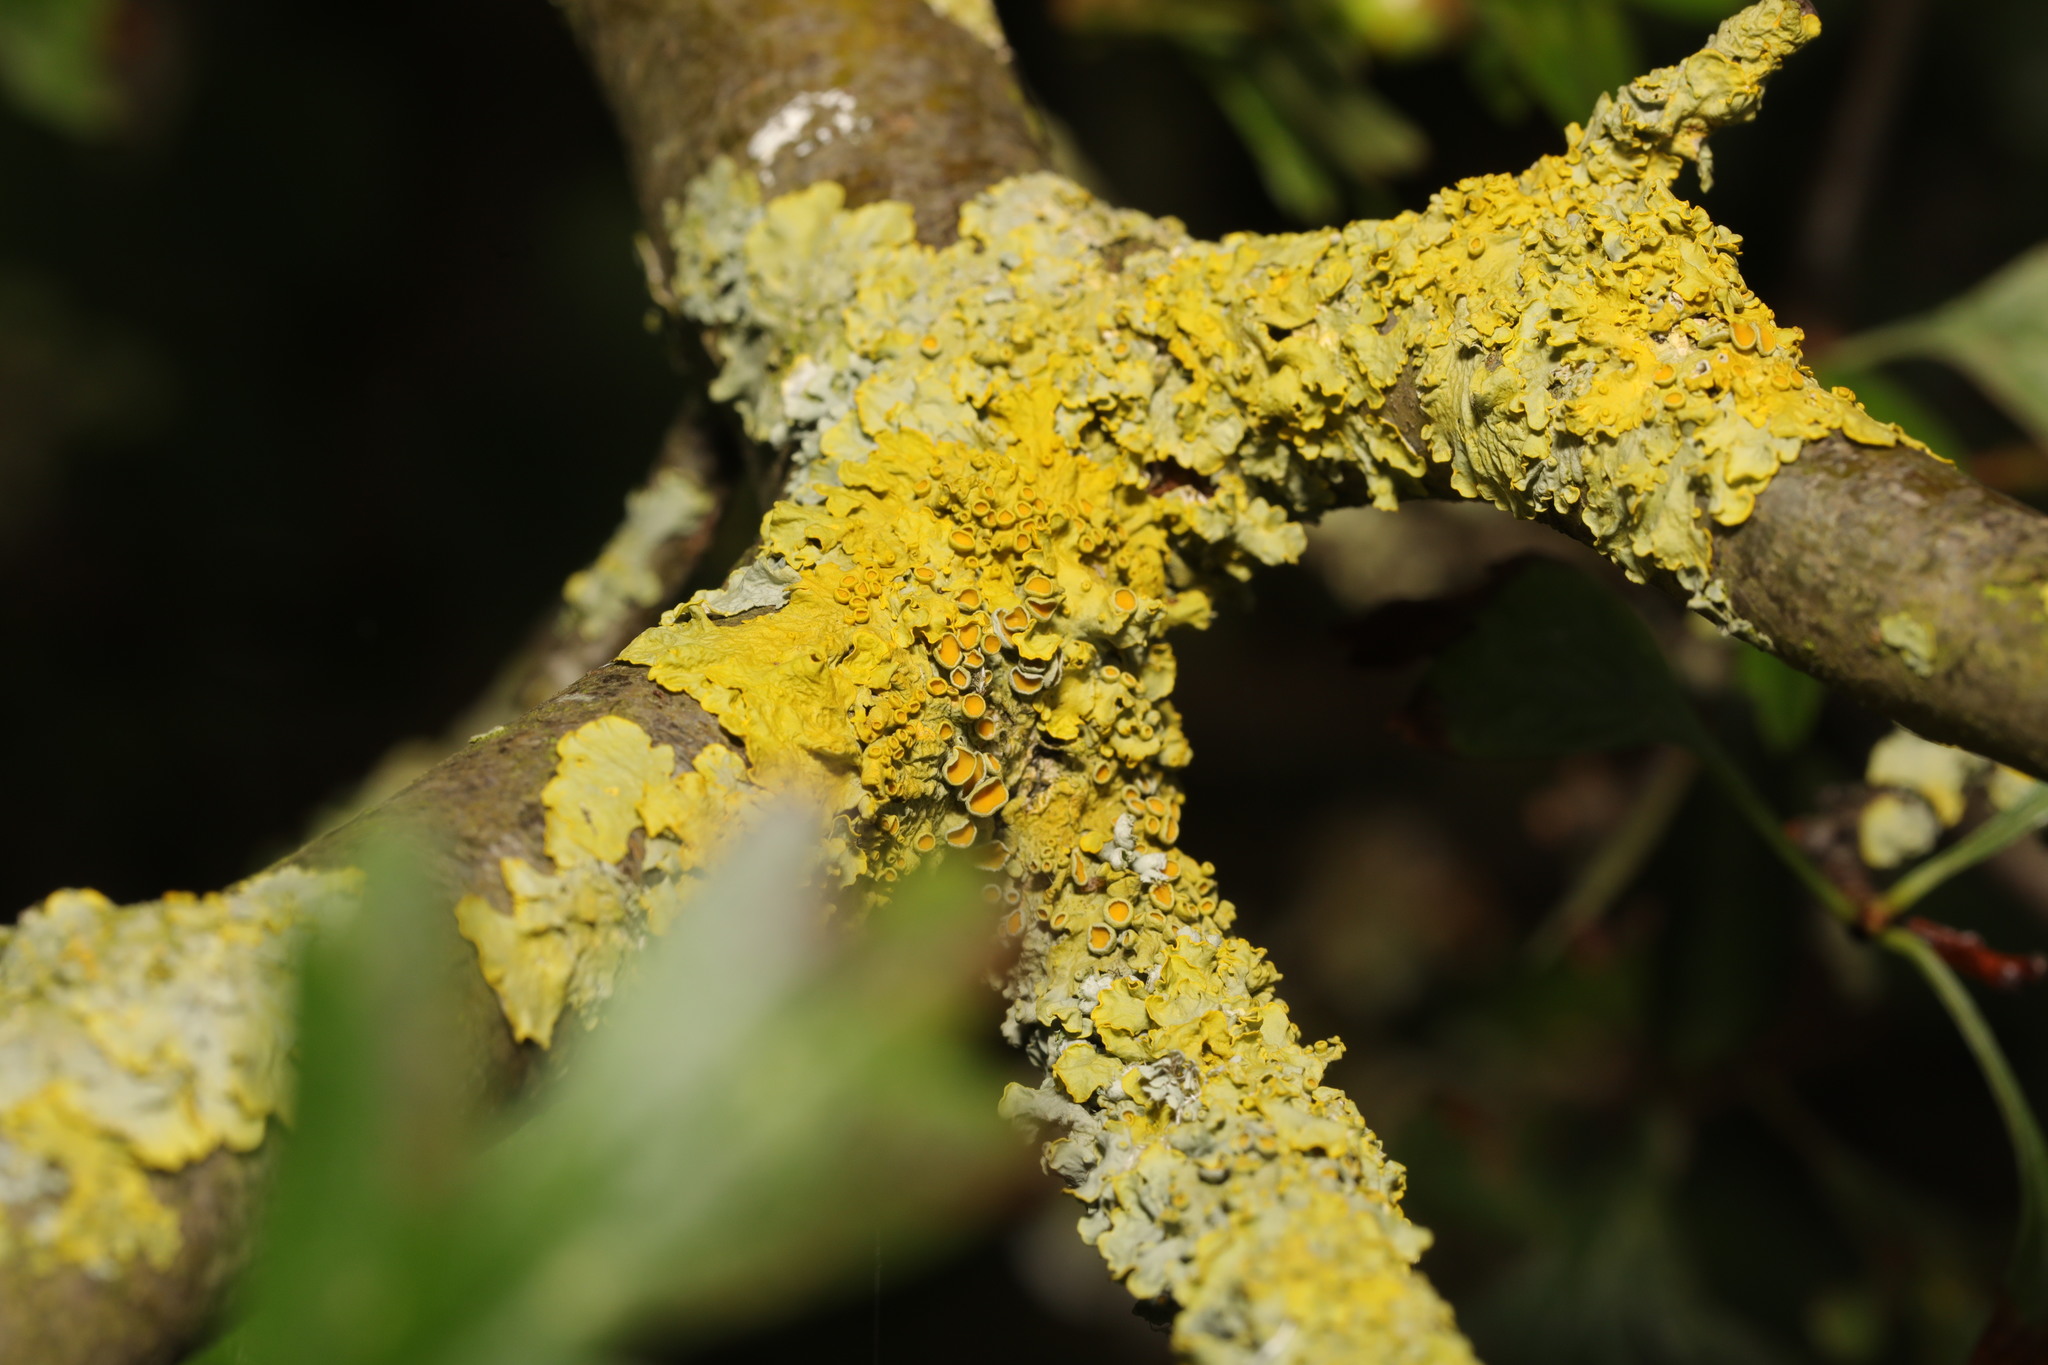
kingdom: Fungi
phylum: Ascomycota
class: Lecanoromycetes
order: Teloschistales
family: Teloschistaceae
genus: Xanthoria
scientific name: Xanthoria parietina
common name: Common orange lichen
